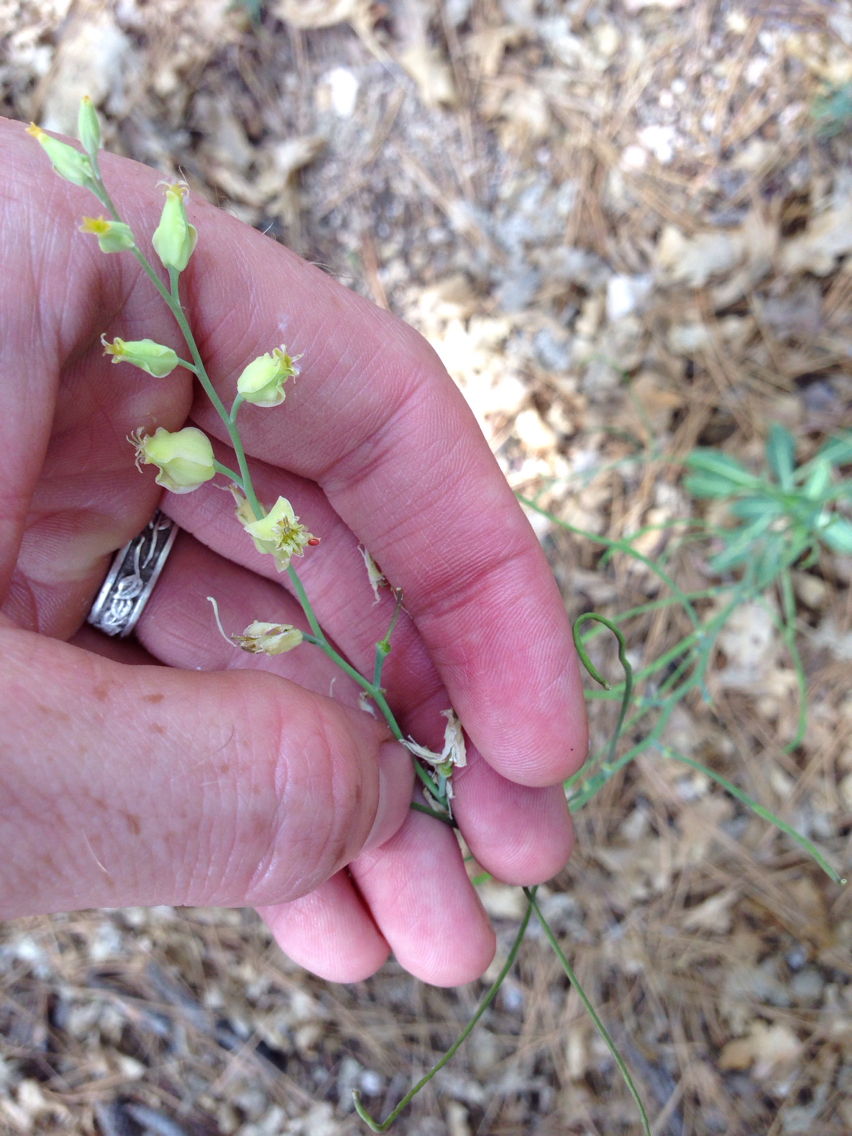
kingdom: Plantae
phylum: Tracheophyta
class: Magnoliopsida
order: Brassicales
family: Brassicaceae
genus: Streptanthus
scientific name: Streptanthus bernardinus
